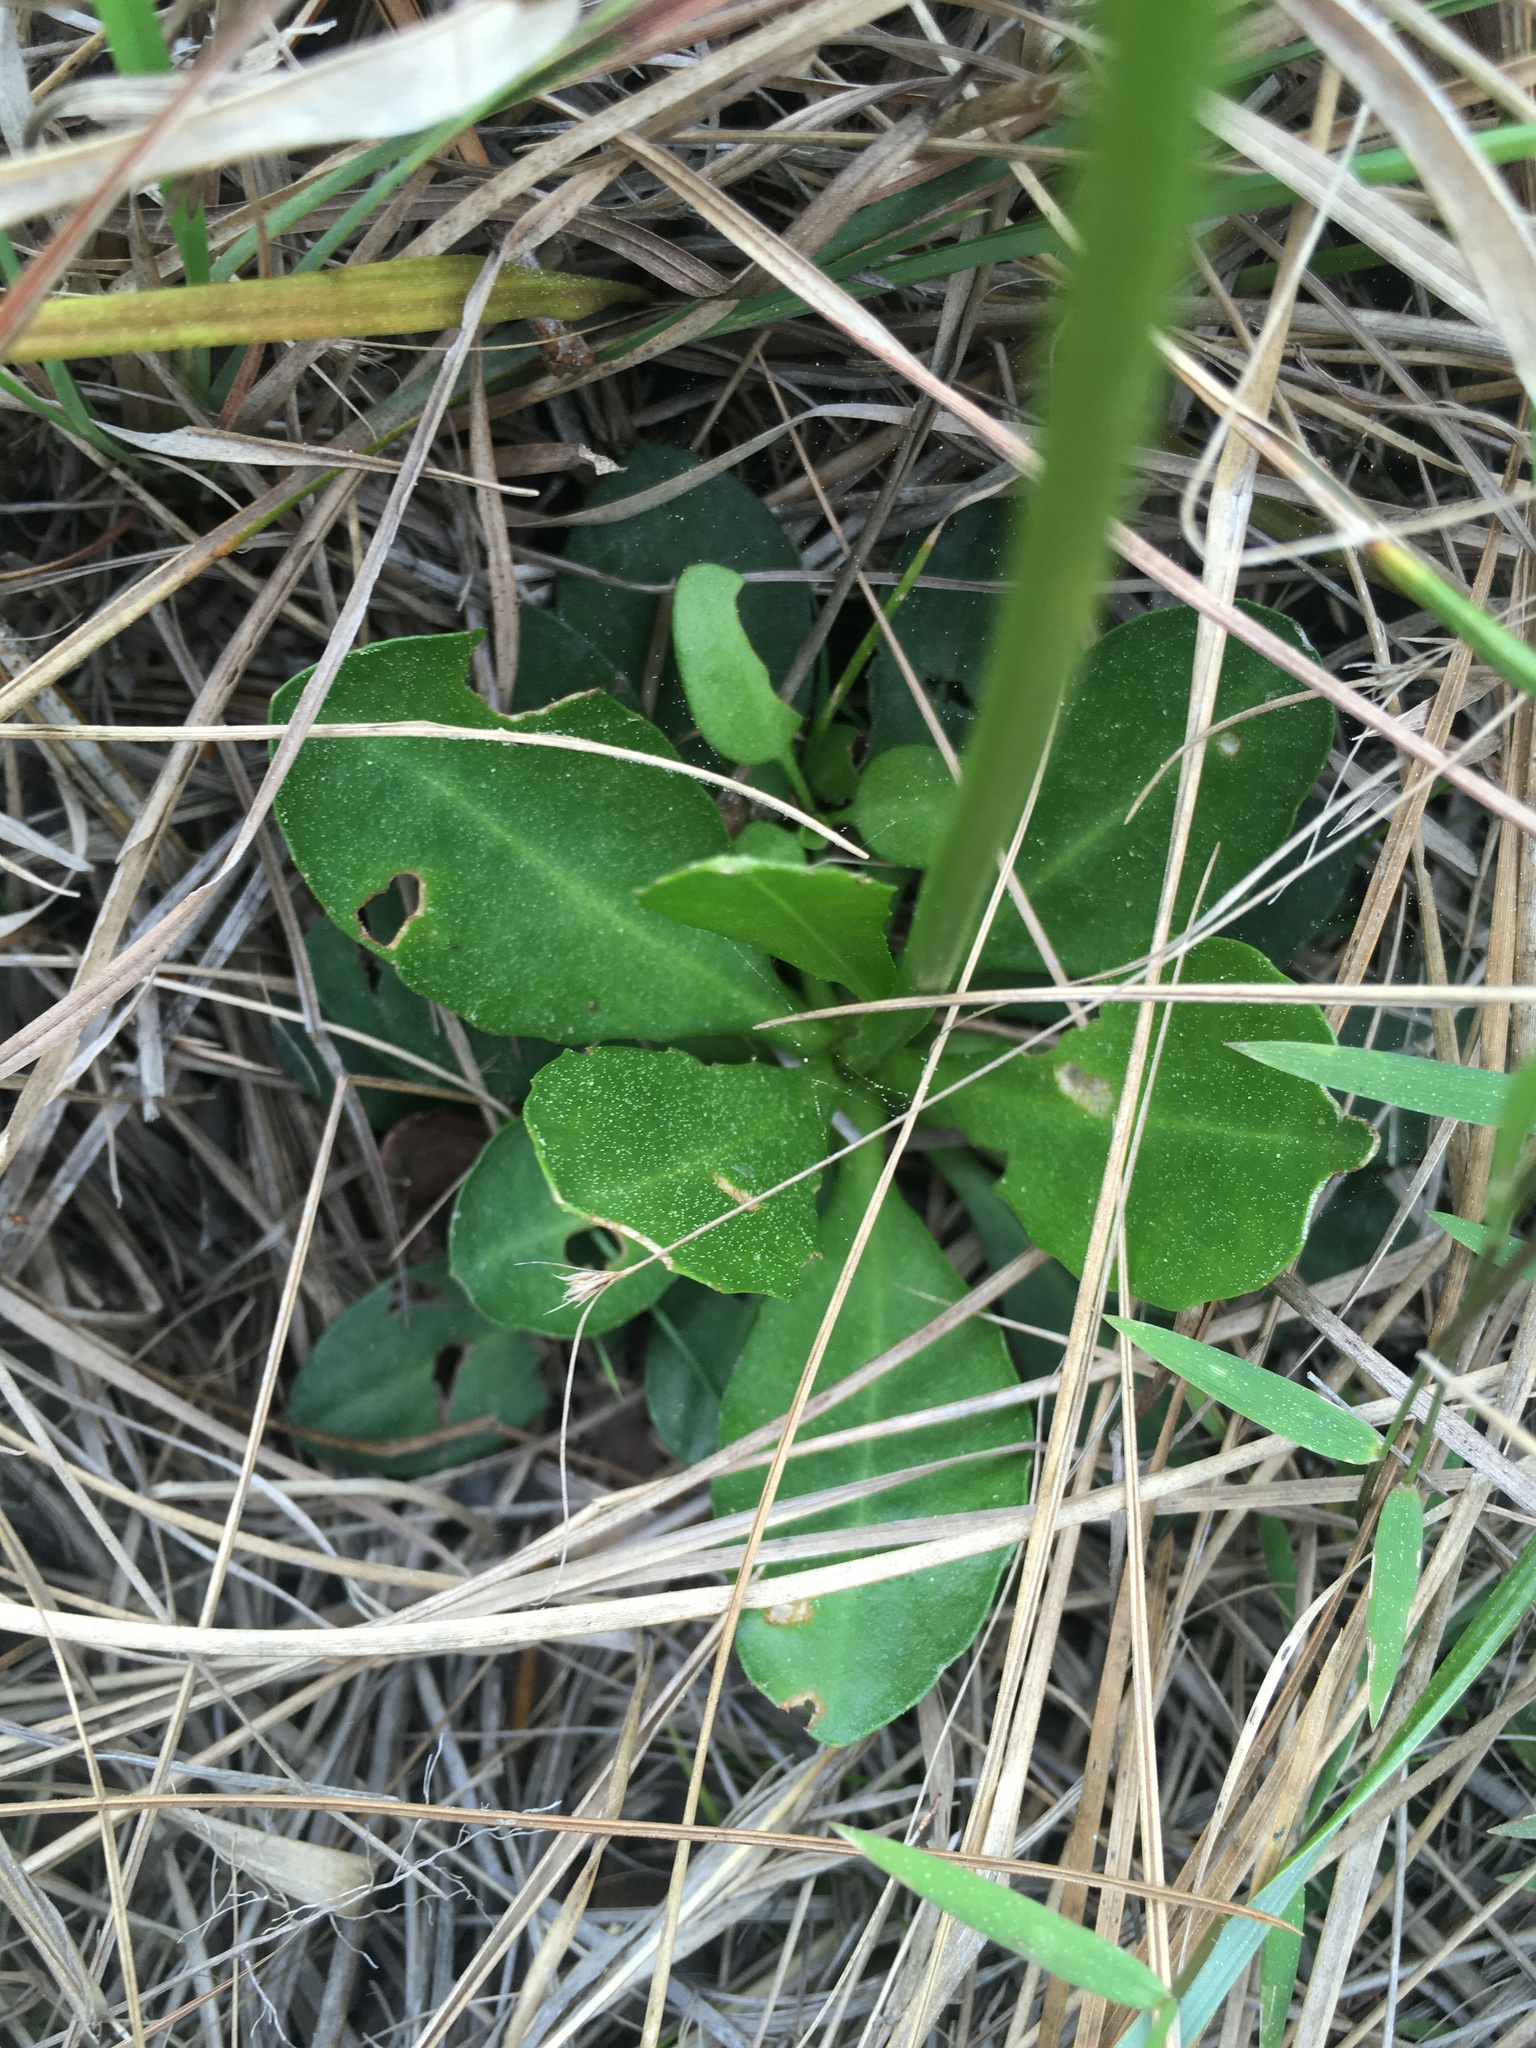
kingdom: Plantae
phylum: Tracheophyta
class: Magnoliopsida
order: Asterales
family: Asteraceae
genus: Erigeron
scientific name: Erigeron vernus
